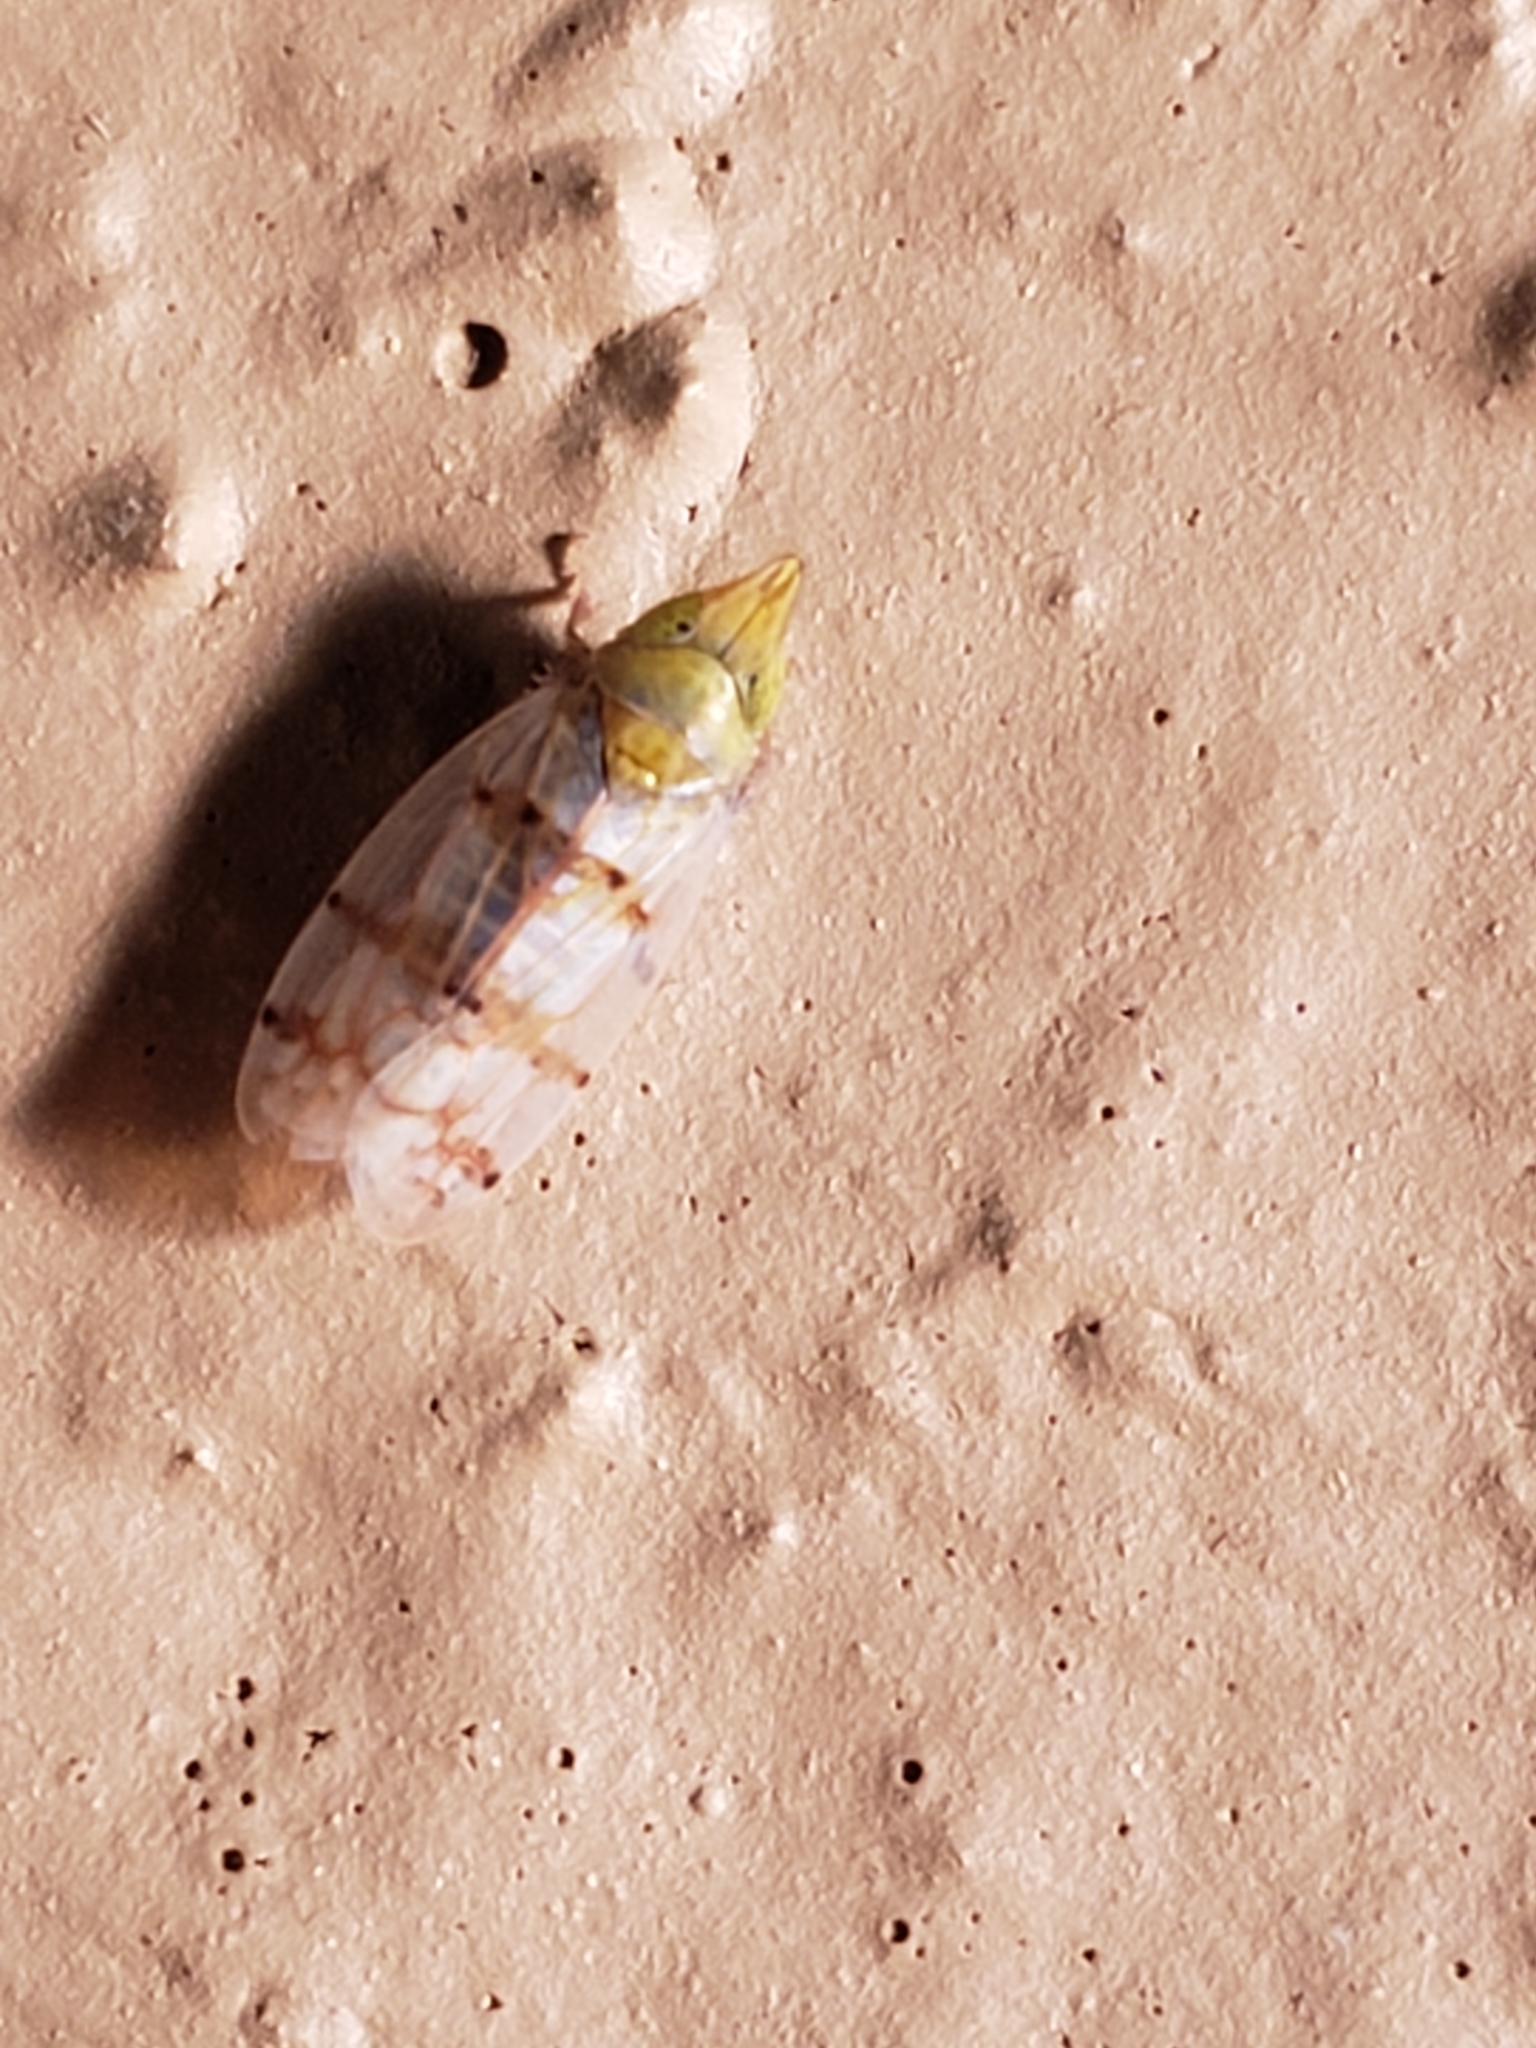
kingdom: Animalia
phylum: Arthropoda
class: Insecta
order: Hemiptera
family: Cicadellidae
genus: Japananus
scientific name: Japananus hyalinus
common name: The japanese maple leafhopper
